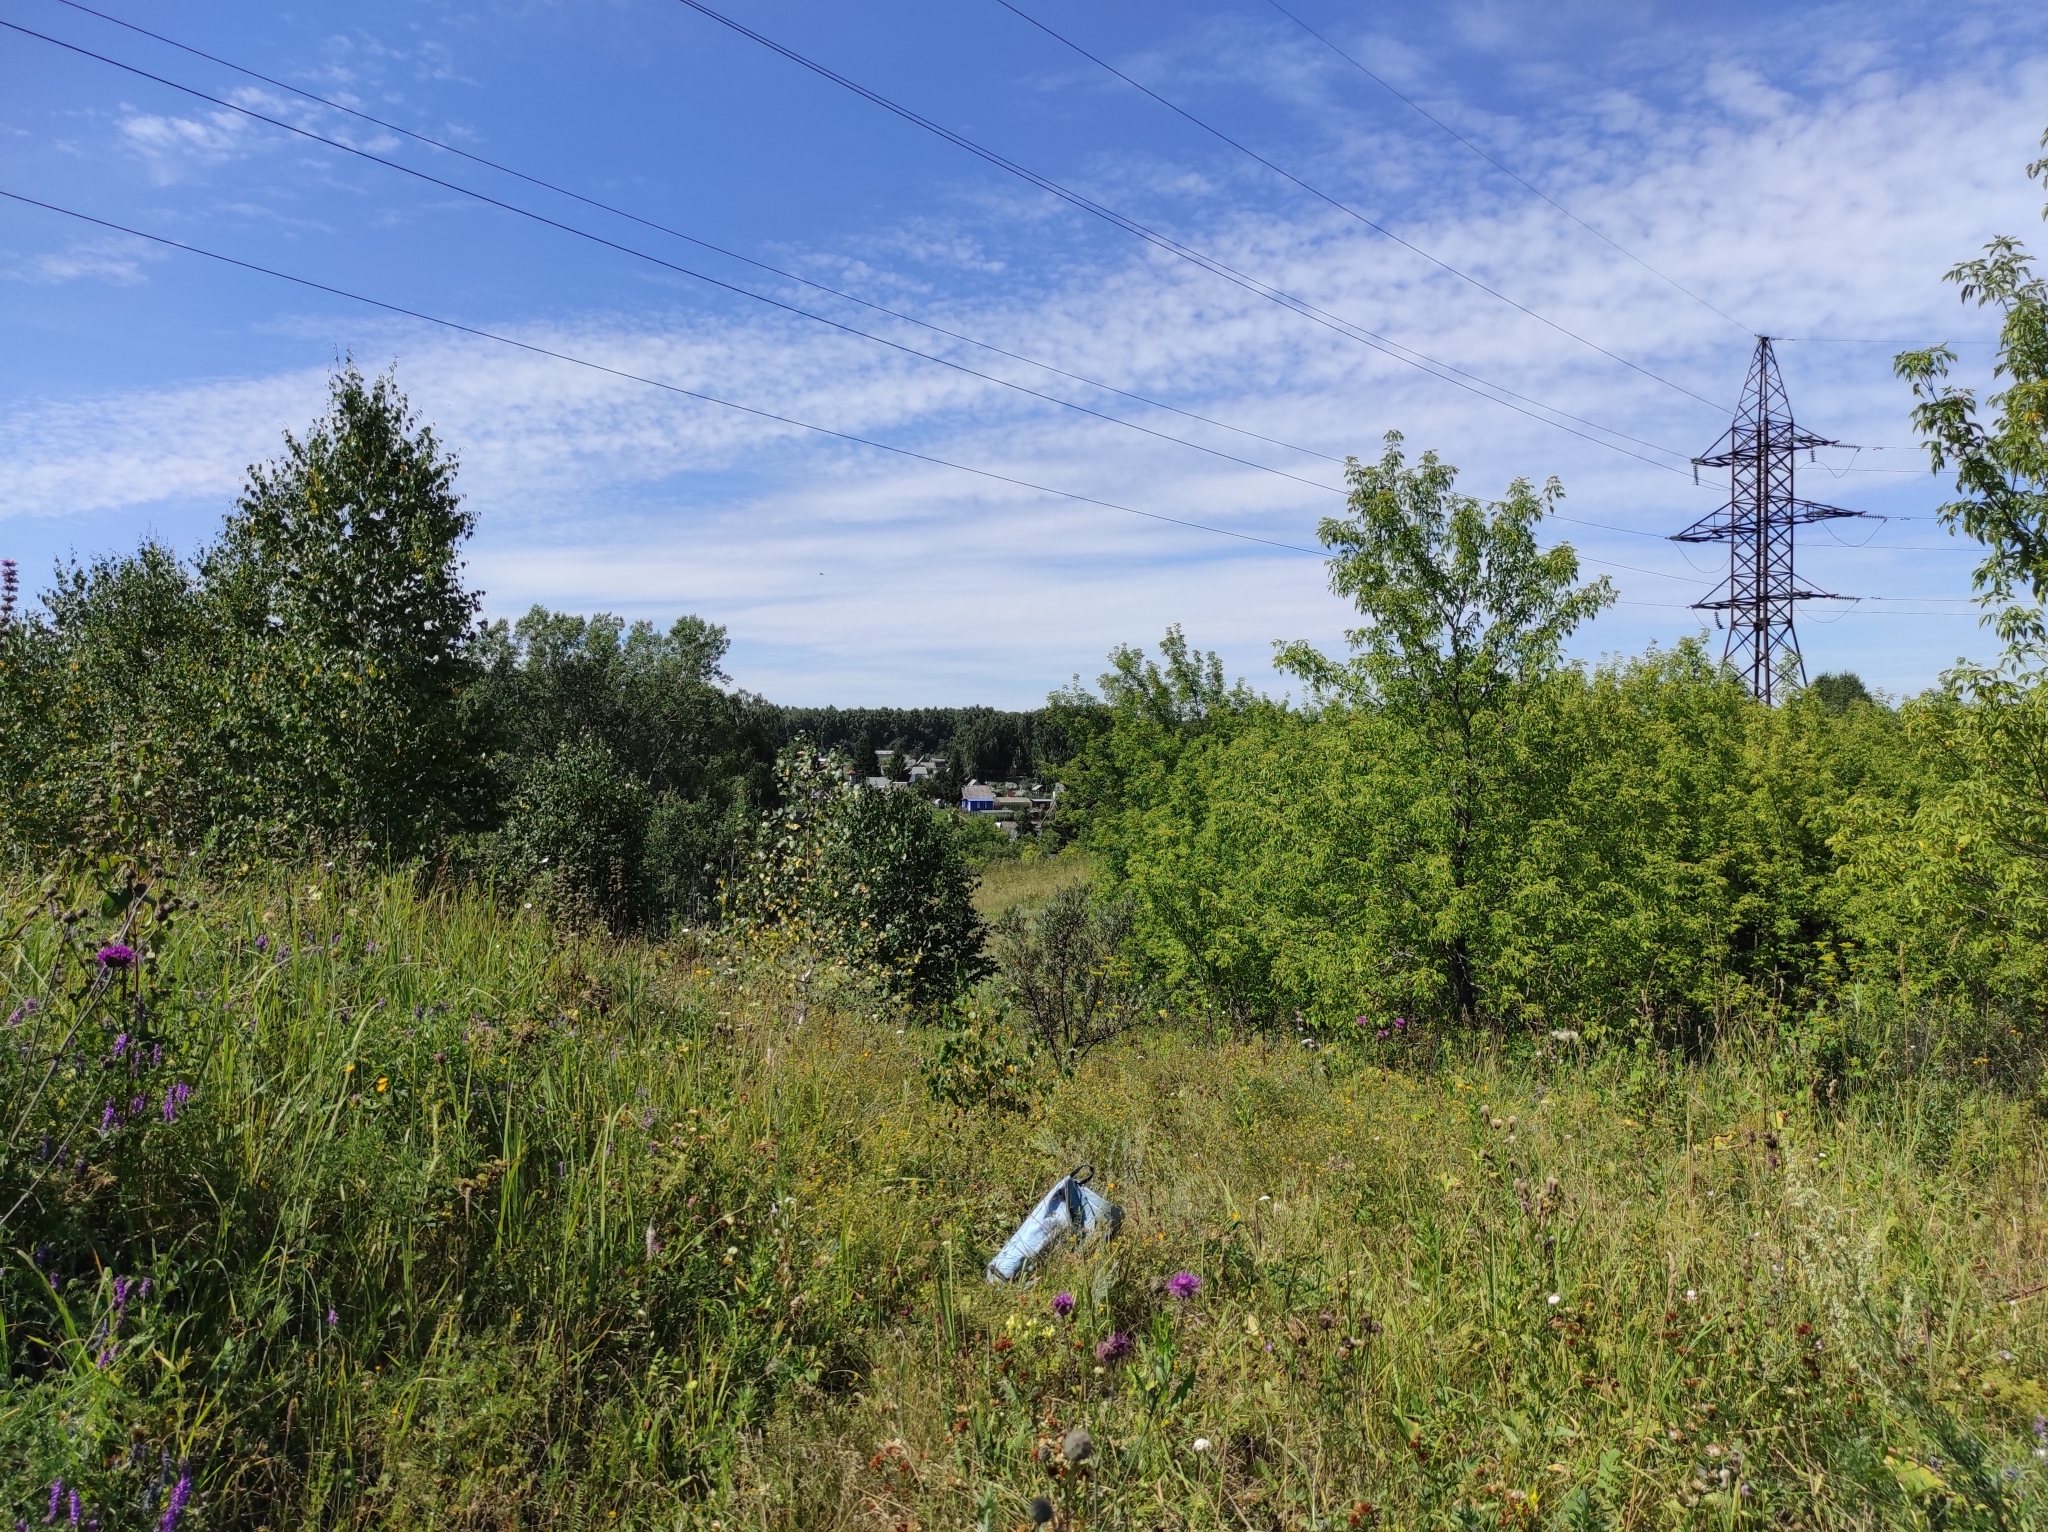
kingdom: Plantae
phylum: Tracheophyta
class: Magnoliopsida
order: Fagales
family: Betulaceae
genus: Betula
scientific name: Betula pendula
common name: Silver birch
